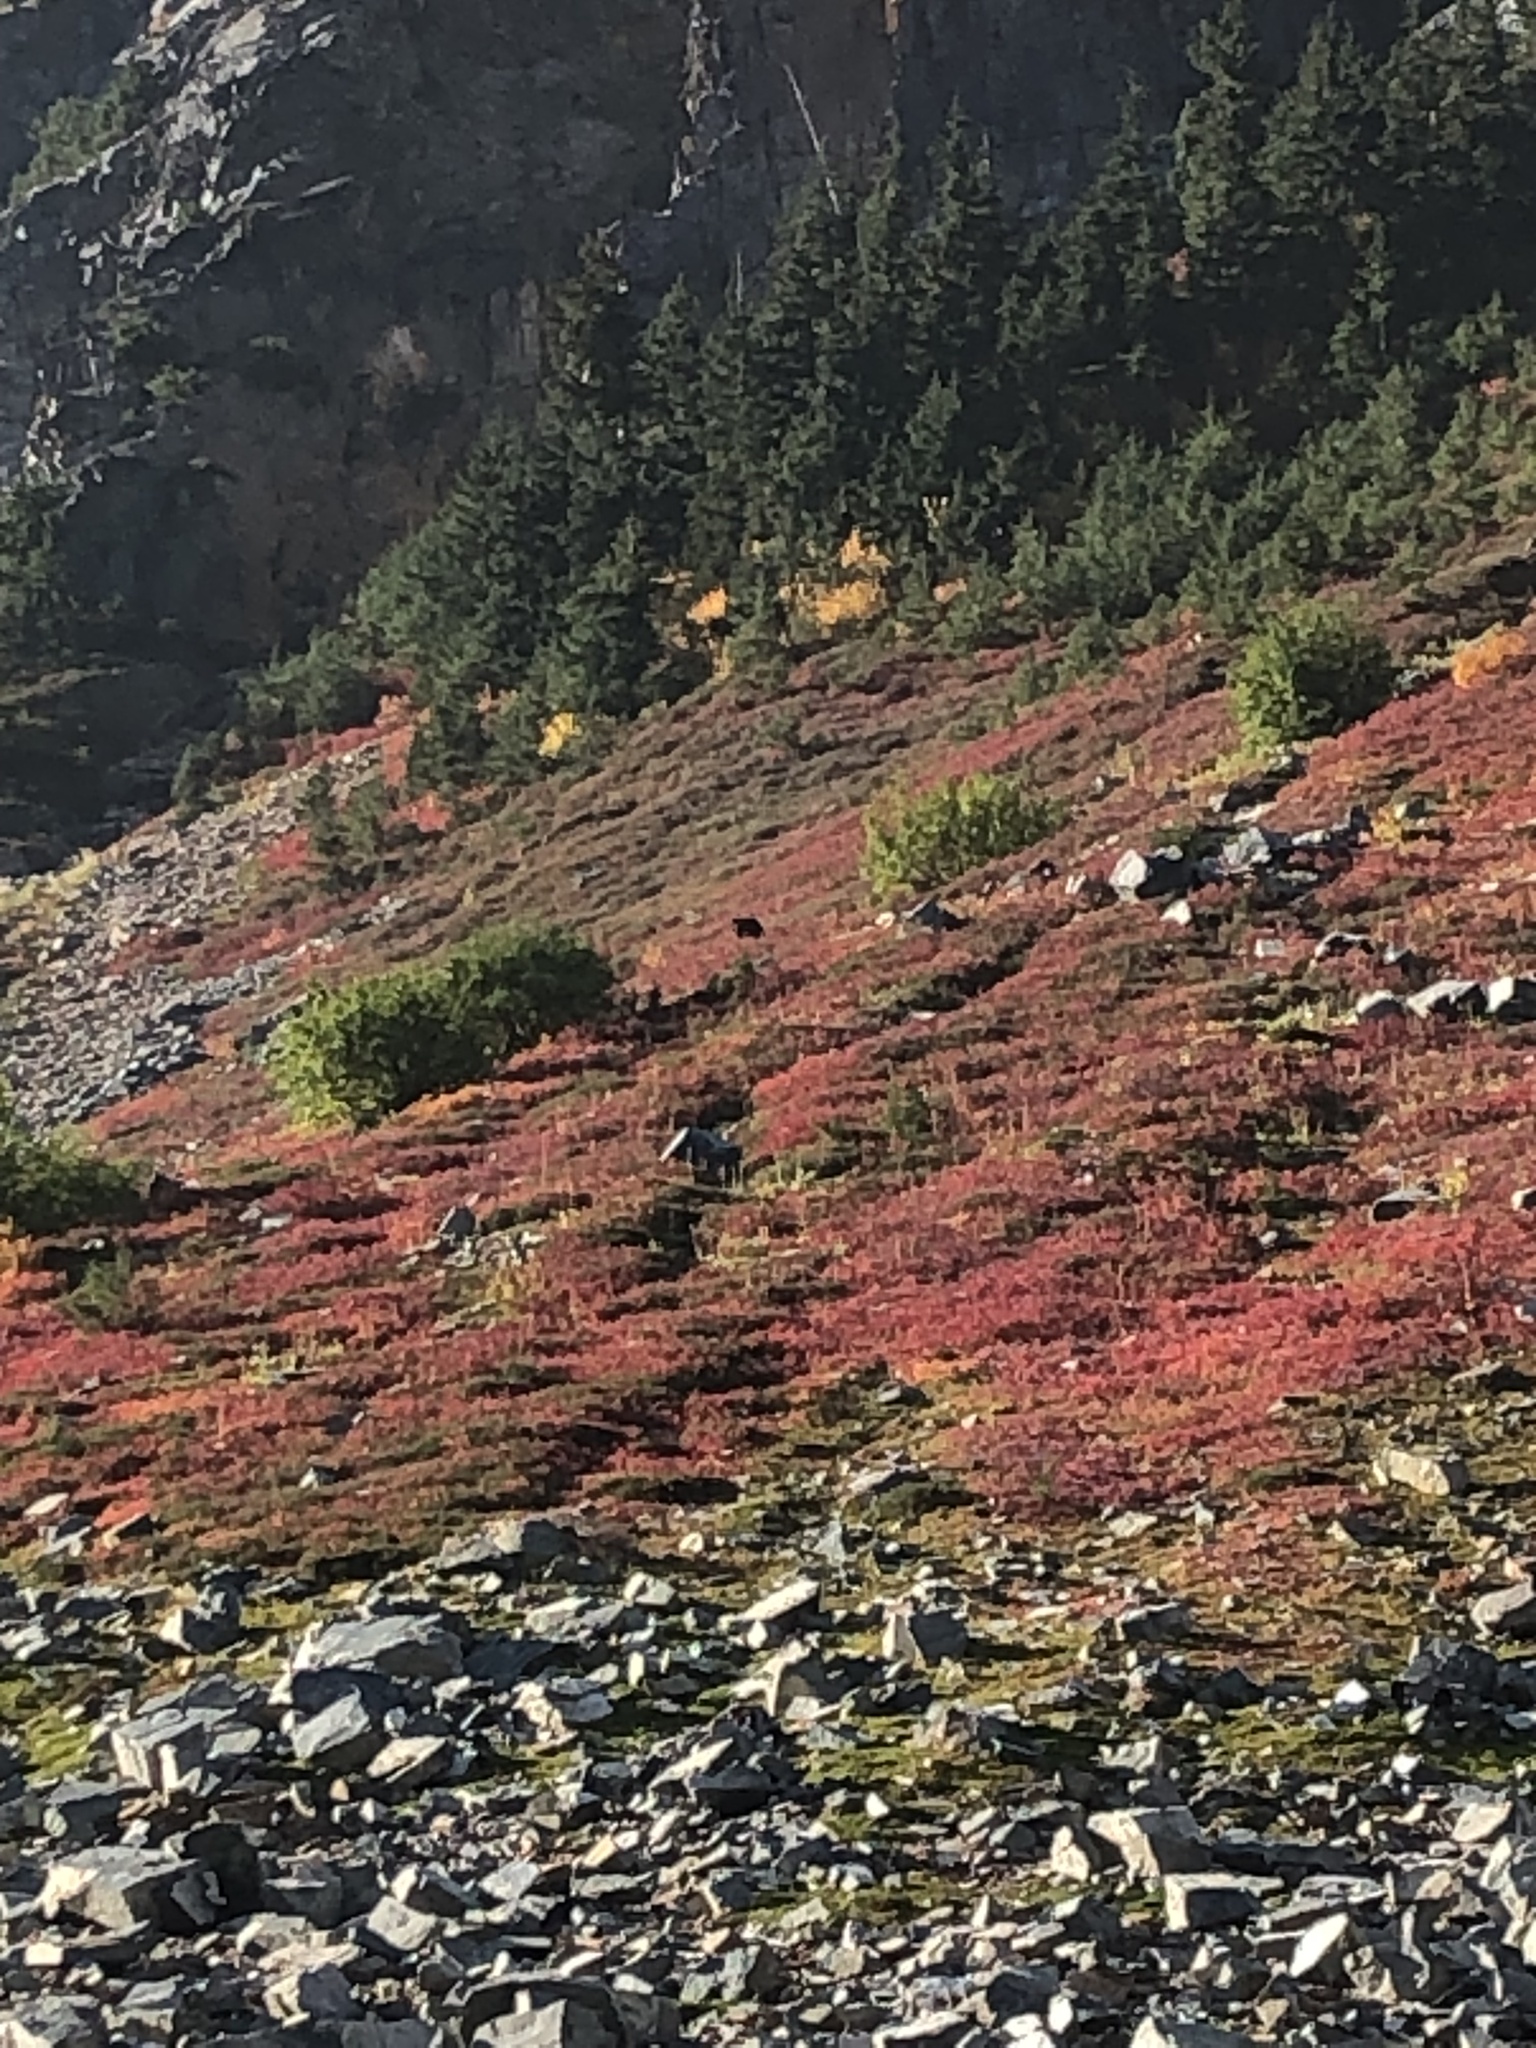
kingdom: Animalia
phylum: Chordata
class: Mammalia
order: Carnivora
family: Ursidae
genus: Ursus
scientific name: Ursus americanus
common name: American black bear
